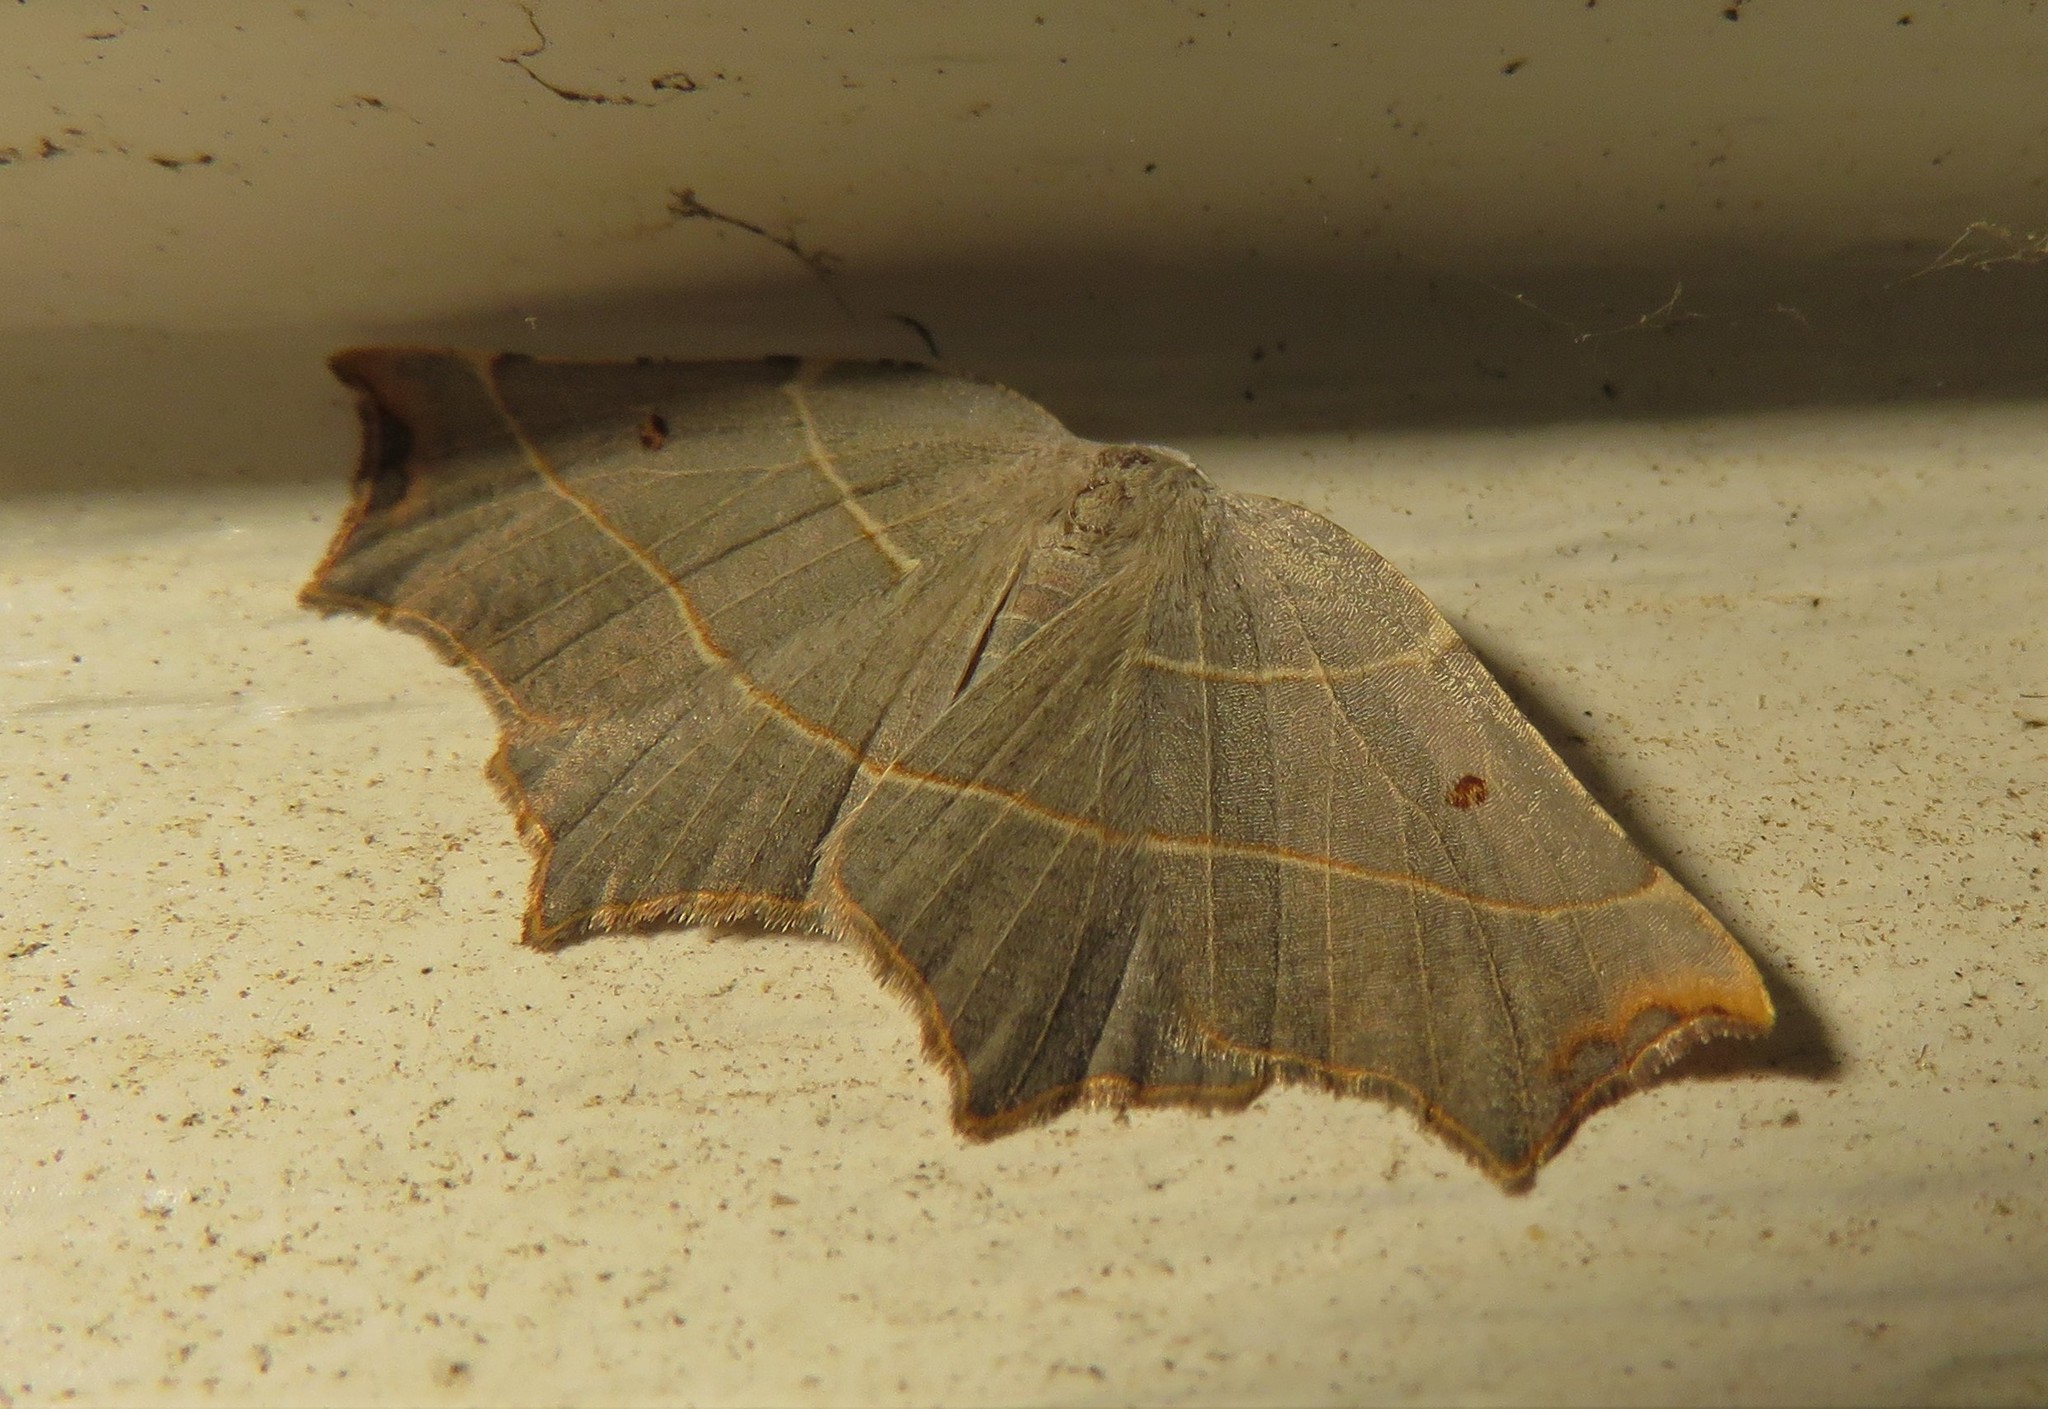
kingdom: Animalia
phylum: Arthropoda
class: Insecta
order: Lepidoptera
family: Geometridae
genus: Metanema
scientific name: Metanema inatomaria
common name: Pale metanema
